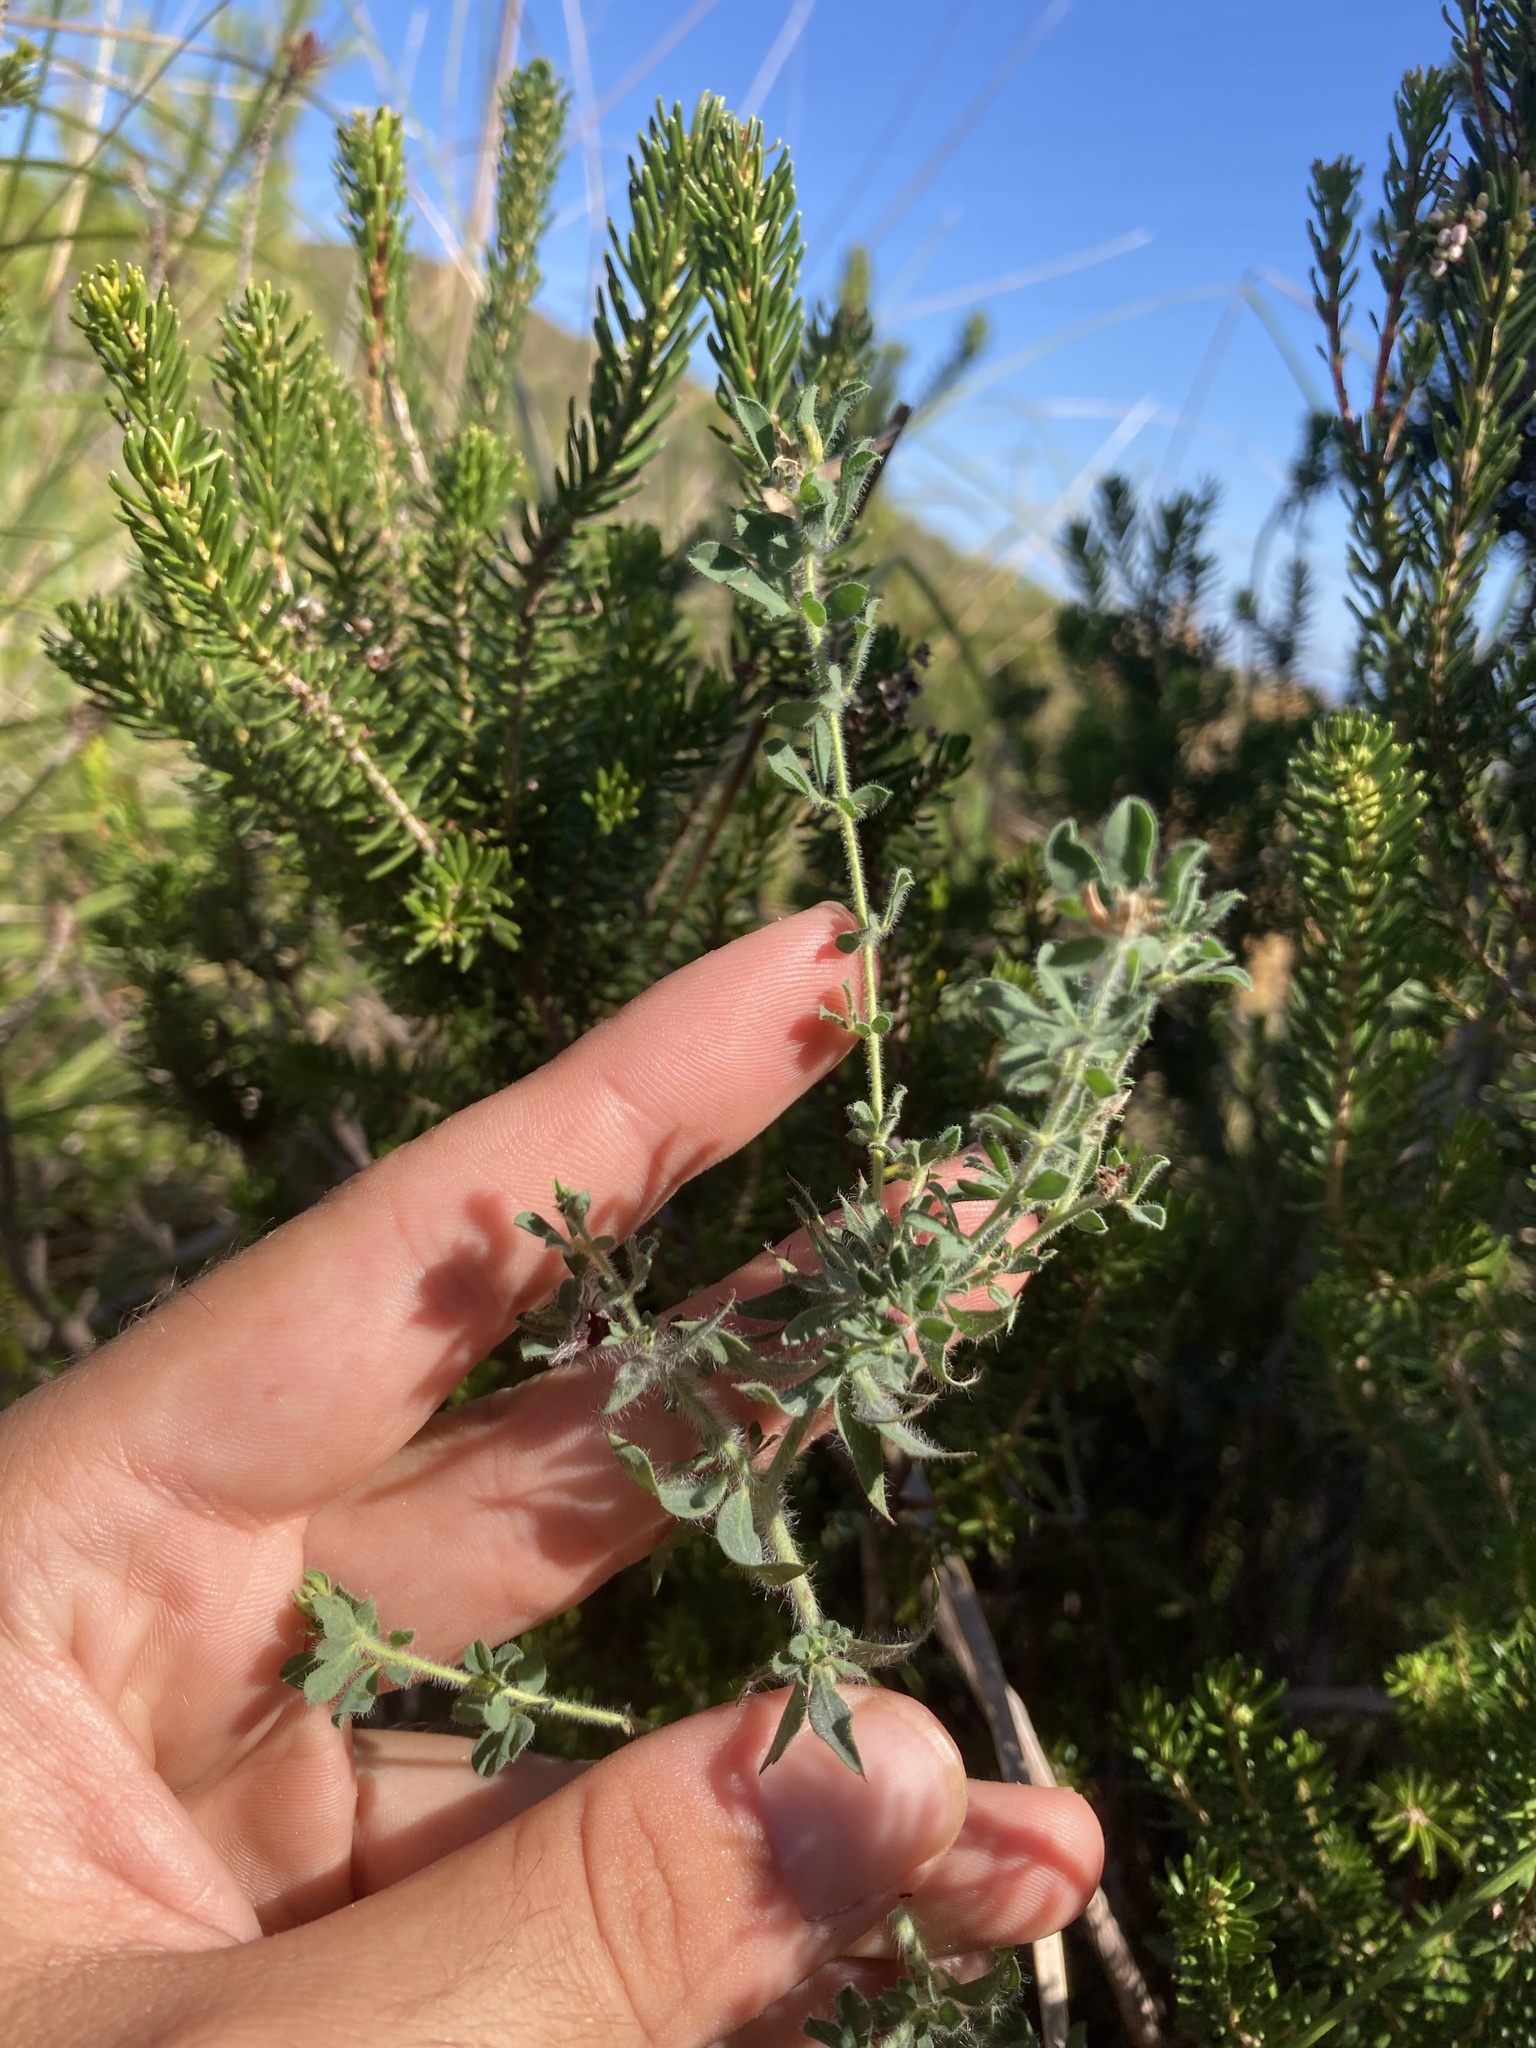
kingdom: Plantae
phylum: Tracheophyta
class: Magnoliopsida
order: Fabales
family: Fabaceae
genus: Lotus
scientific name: Lotus hirsutus
